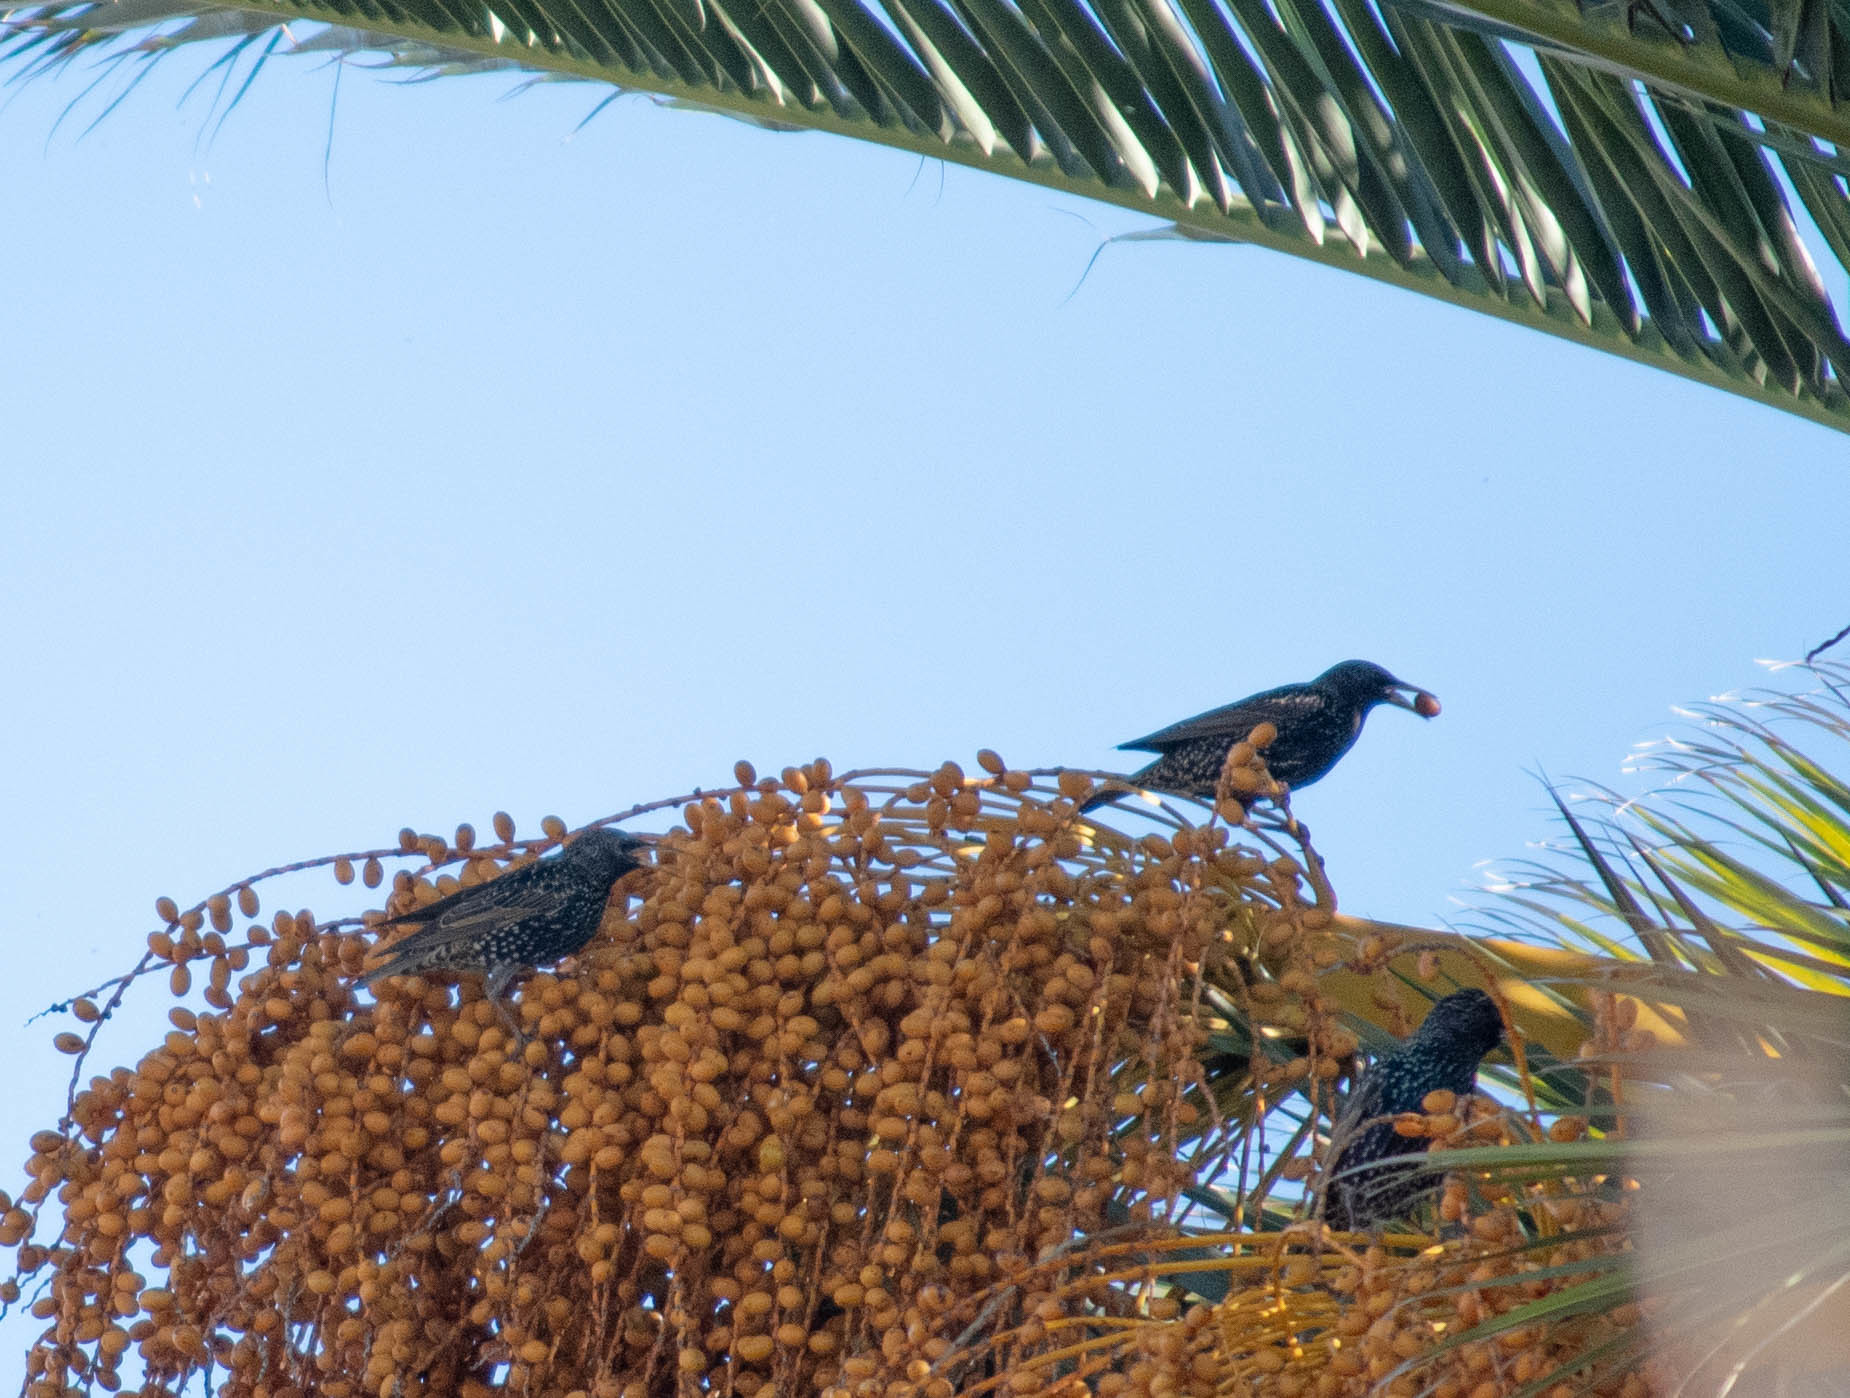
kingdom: Animalia
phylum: Chordata
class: Aves
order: Passeriformes
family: Sturnidae
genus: Sturnus
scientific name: Sturnus vulgaris
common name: Common starling
